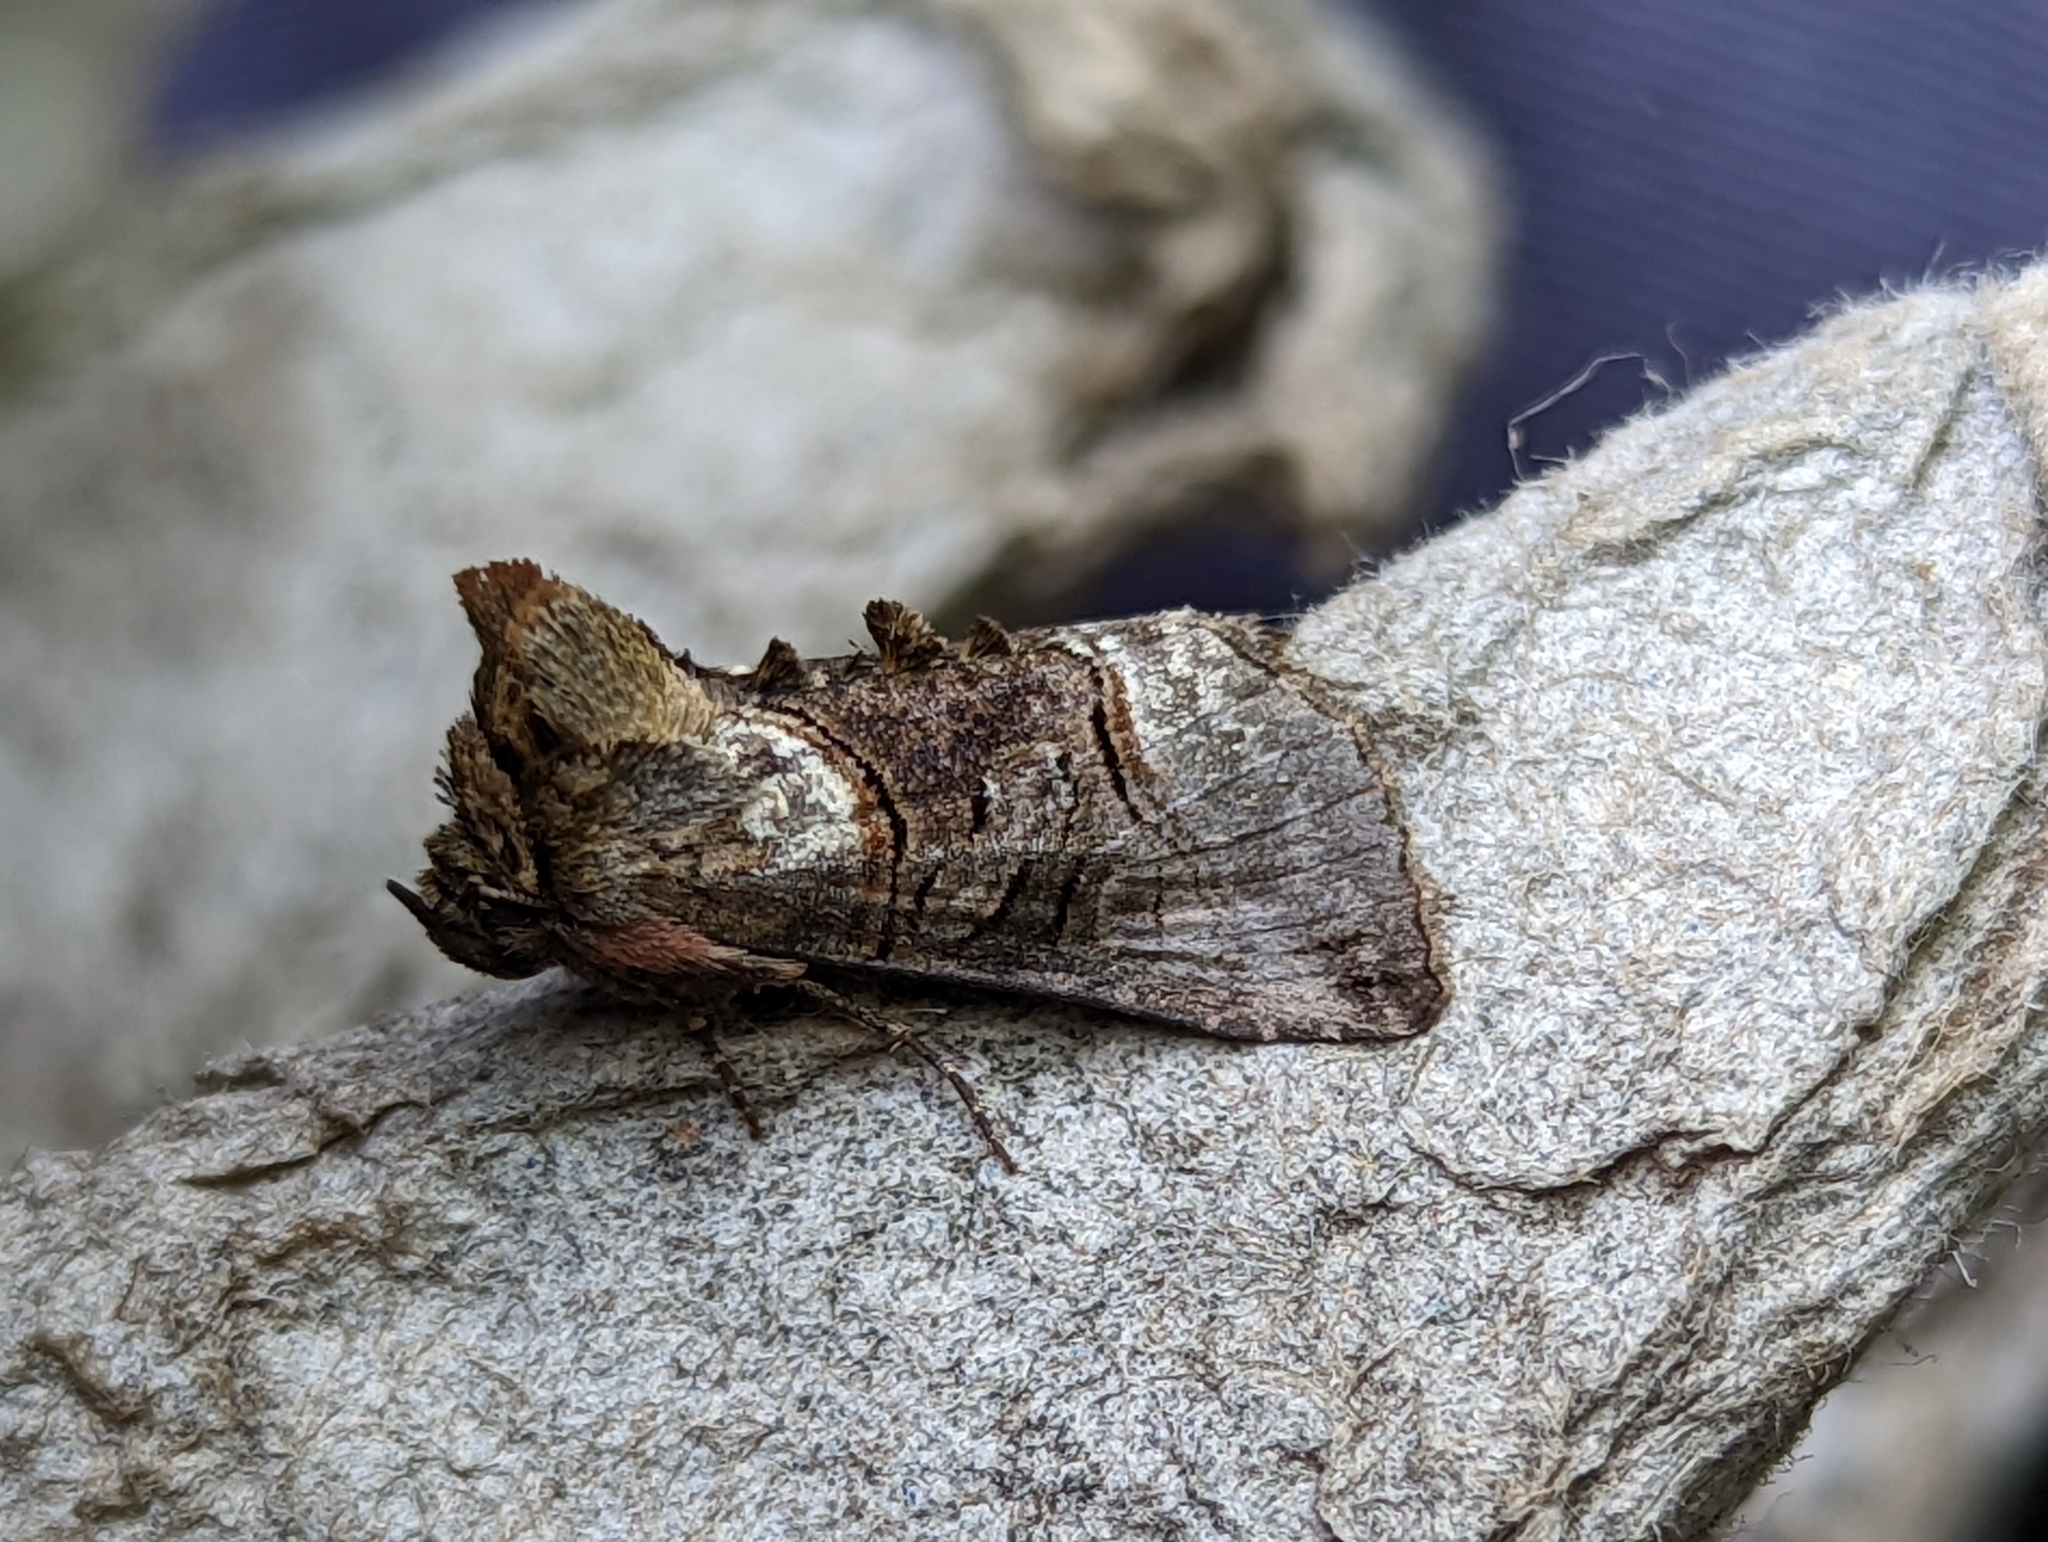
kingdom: Animalia
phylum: Arthropoda
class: Insecta
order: Lepidoptera
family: Noctuidae
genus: Abrostola
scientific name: Abrostola tripartita
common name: Spectacle
